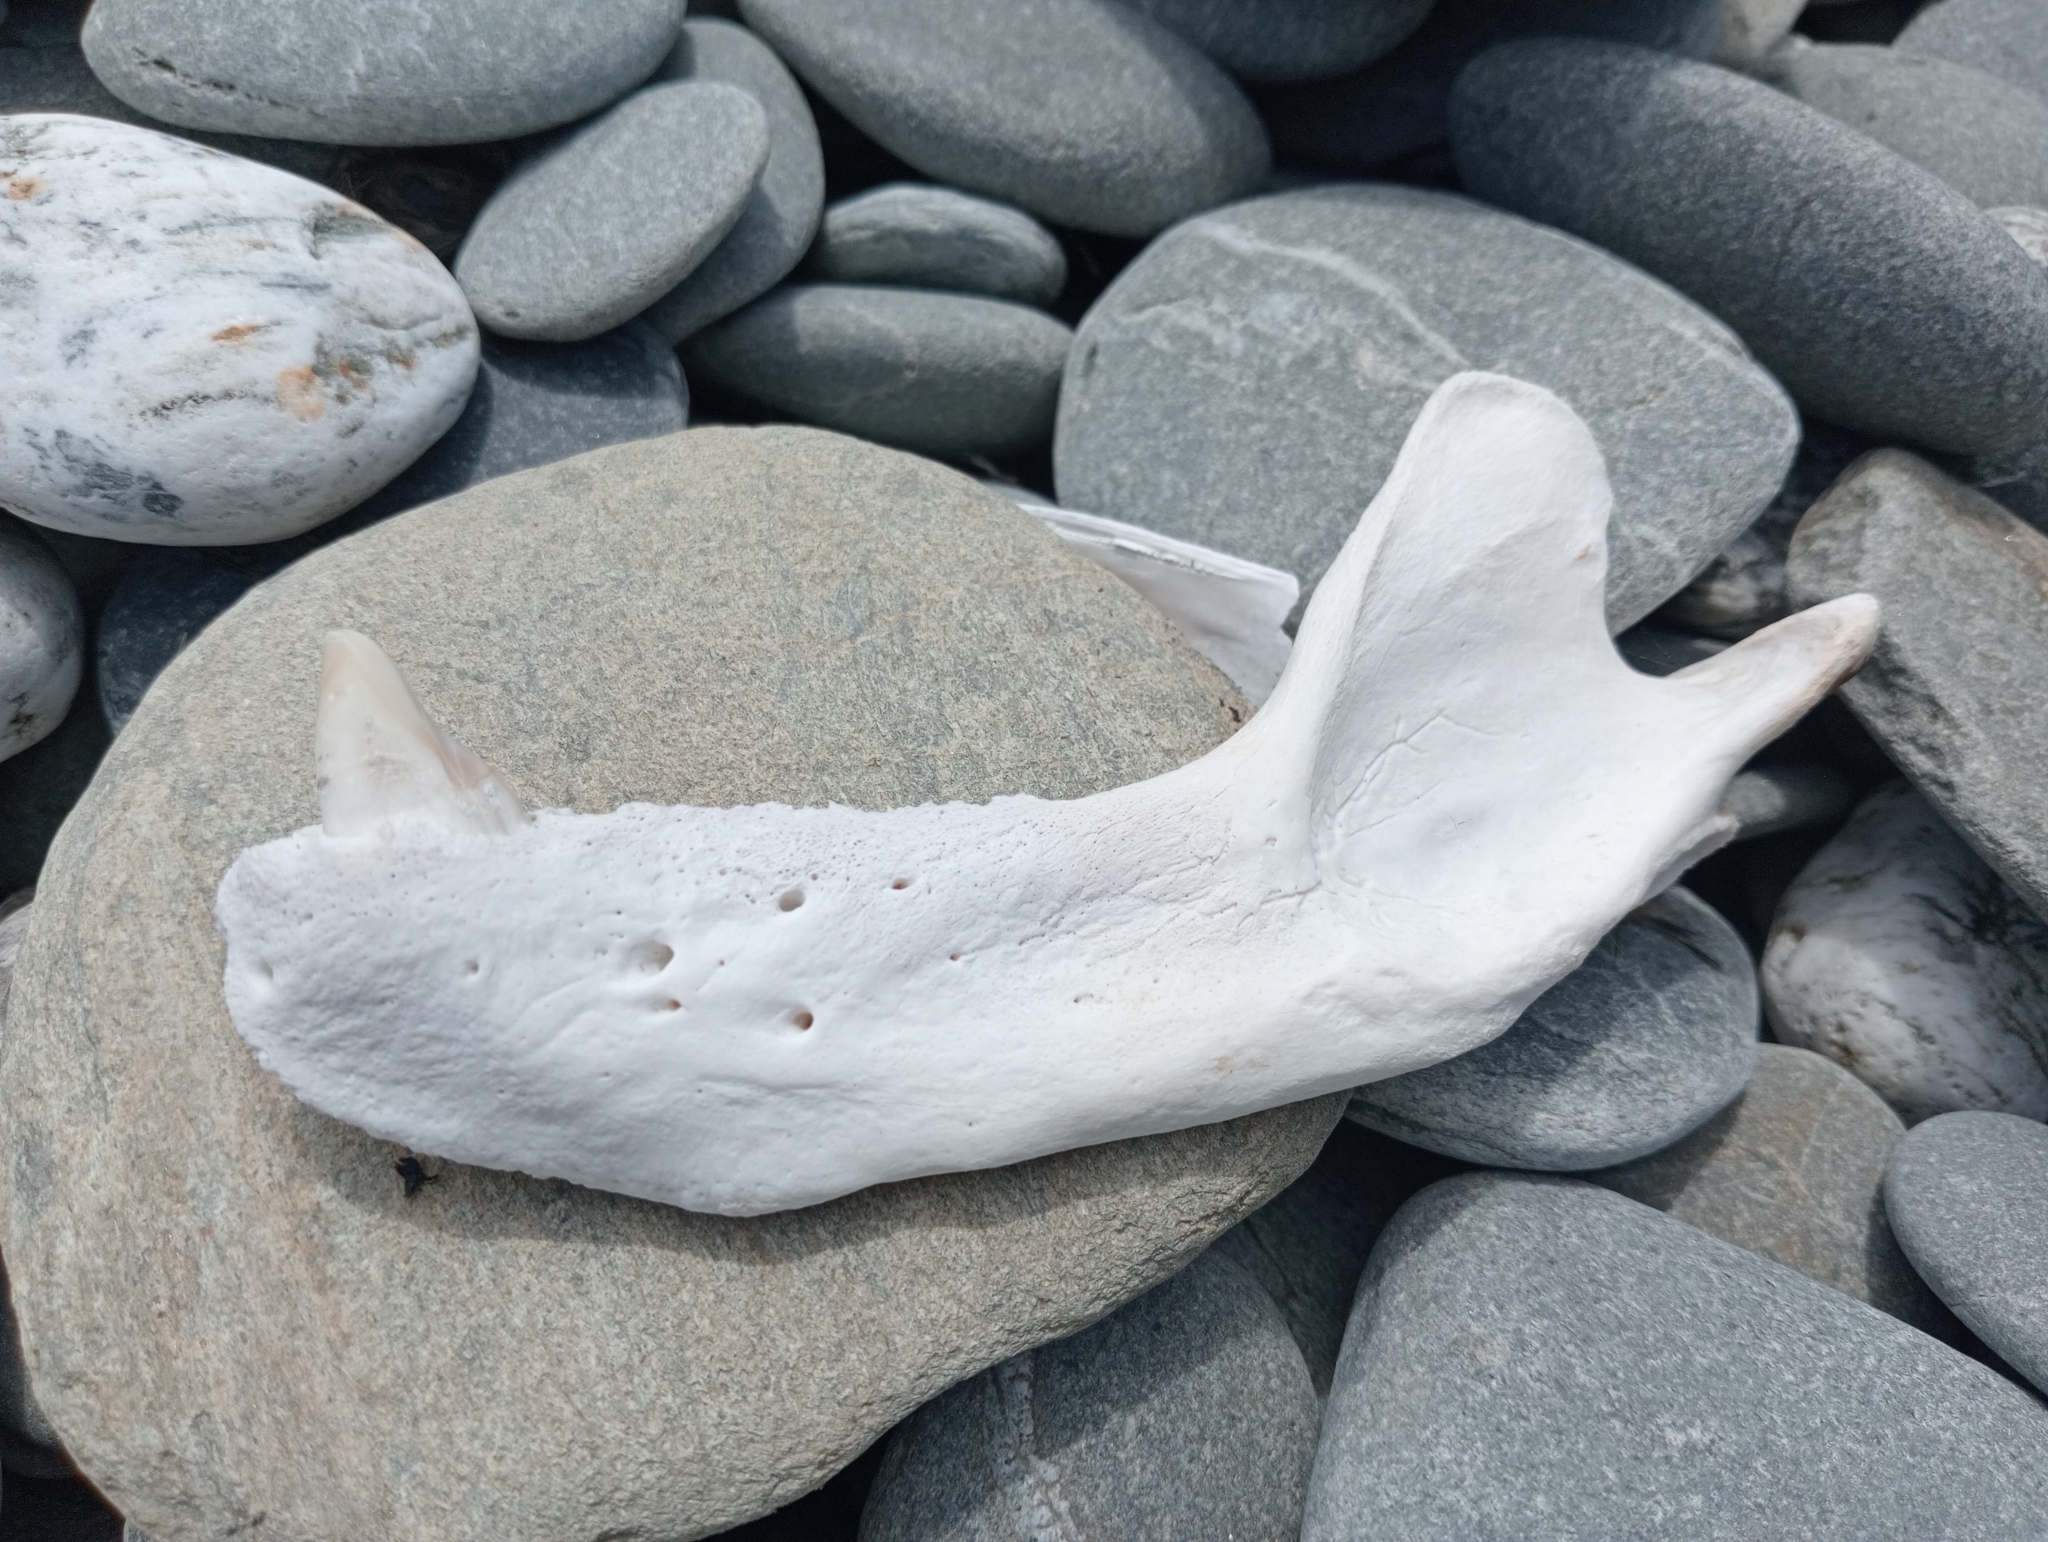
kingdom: Animalia
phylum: Chordata
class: Mammalia
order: Carnivora
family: Otariidae
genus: Arctocephalus
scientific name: Arctocephalus forsteri
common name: New zealand fur seal
